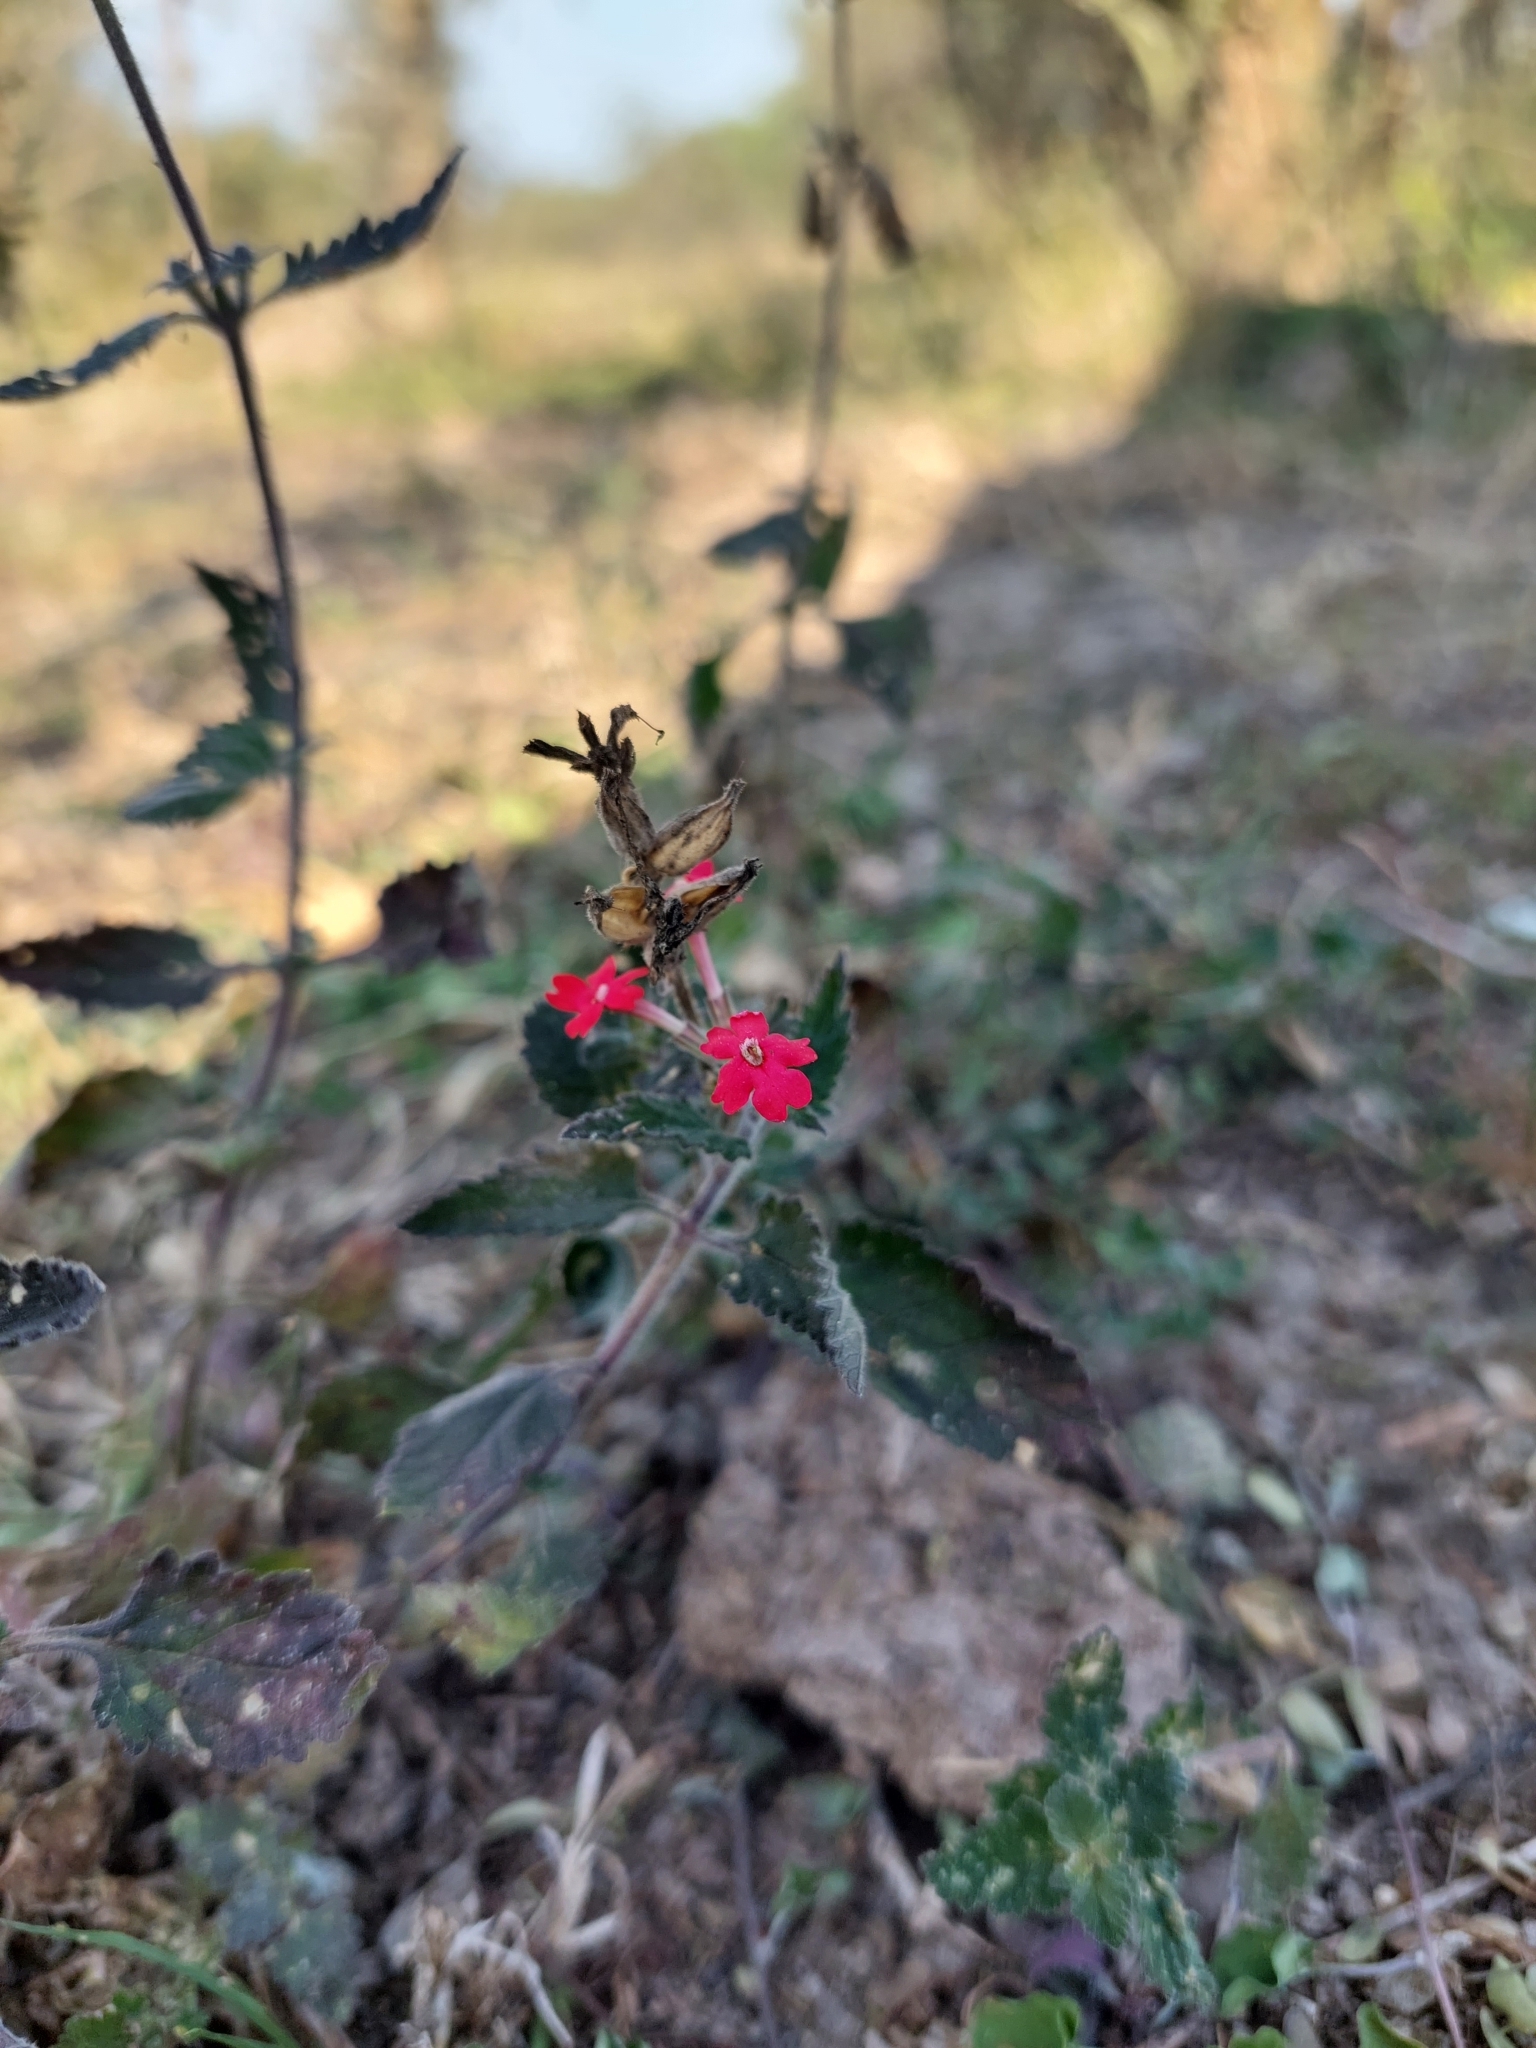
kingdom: Plantae
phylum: Tracheophyta
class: Magnoliopsida
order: Lamiales
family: Verbenaceae
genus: Verbena
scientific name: Verbena tweedieana
